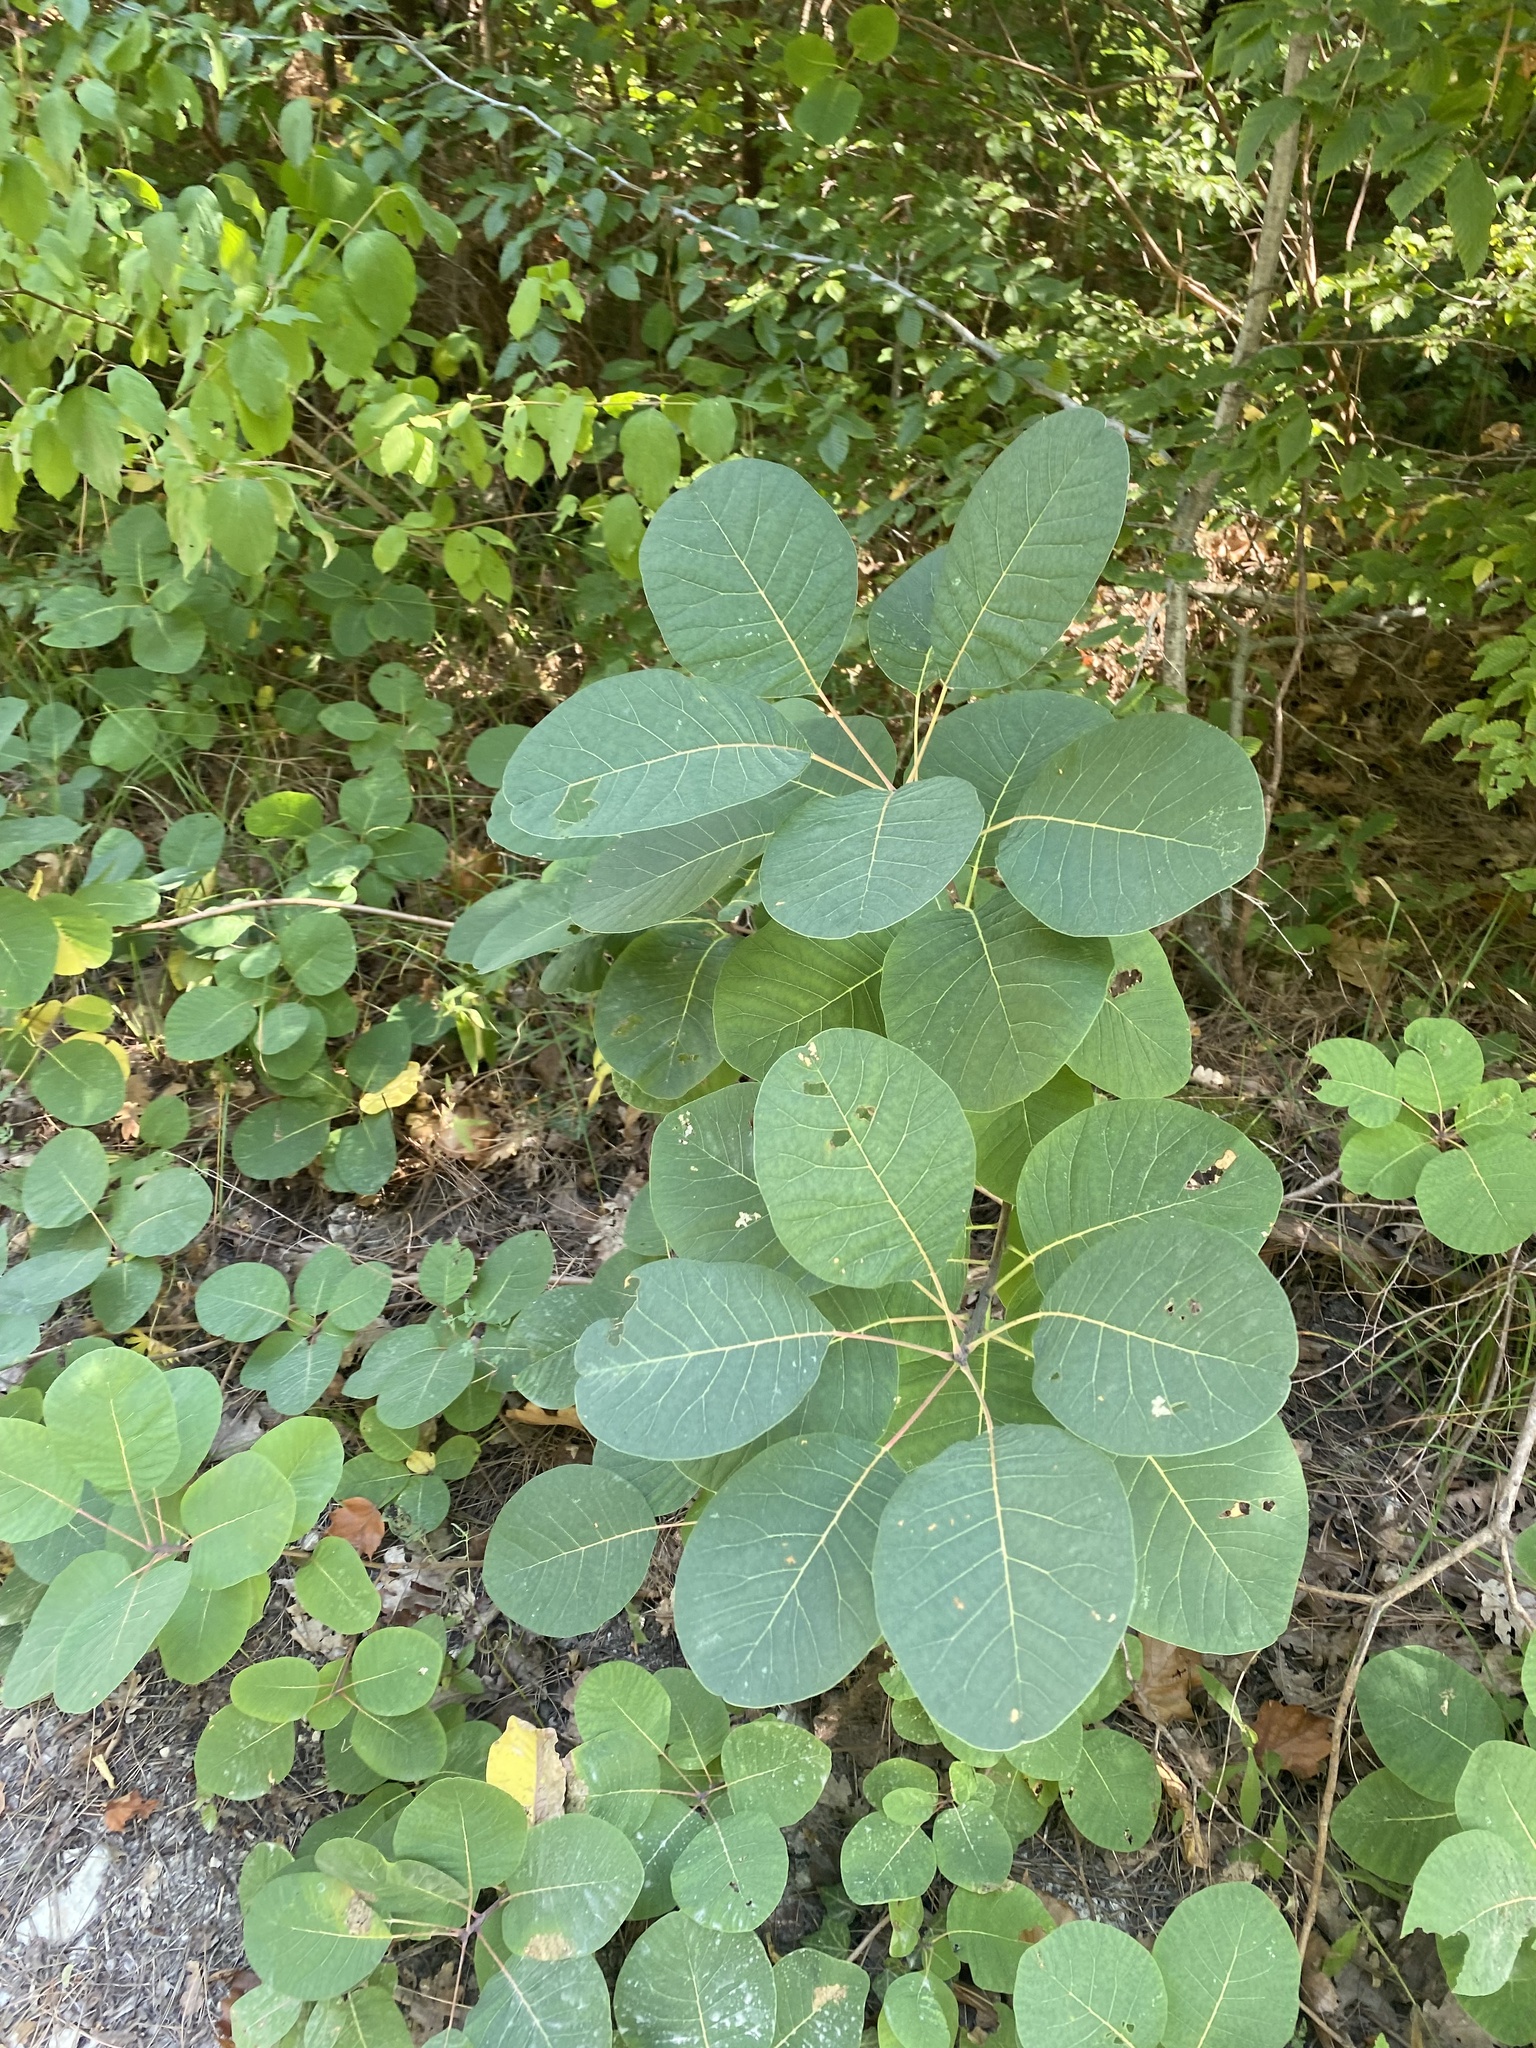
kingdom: Plantae
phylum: Tracheophyta
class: Magnoliopsida
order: Sapindales
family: Anacardiaceae
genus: Cotinus
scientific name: Cotinus coggygria
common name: Smoke-tree
